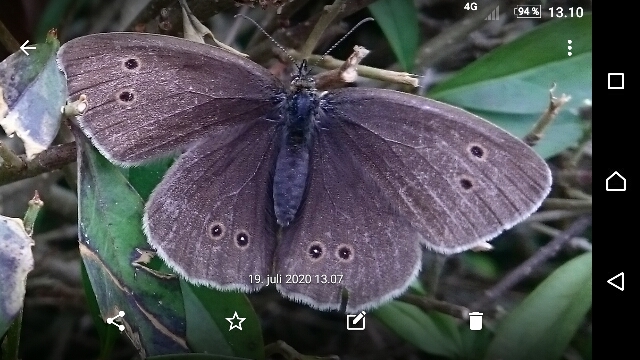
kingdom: Animalia
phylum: Arthropoda
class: Insecta
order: Lepidoptera
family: Nymphalidae
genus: Aphantopus
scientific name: Aphantopus hyperantus
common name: Ringlet
